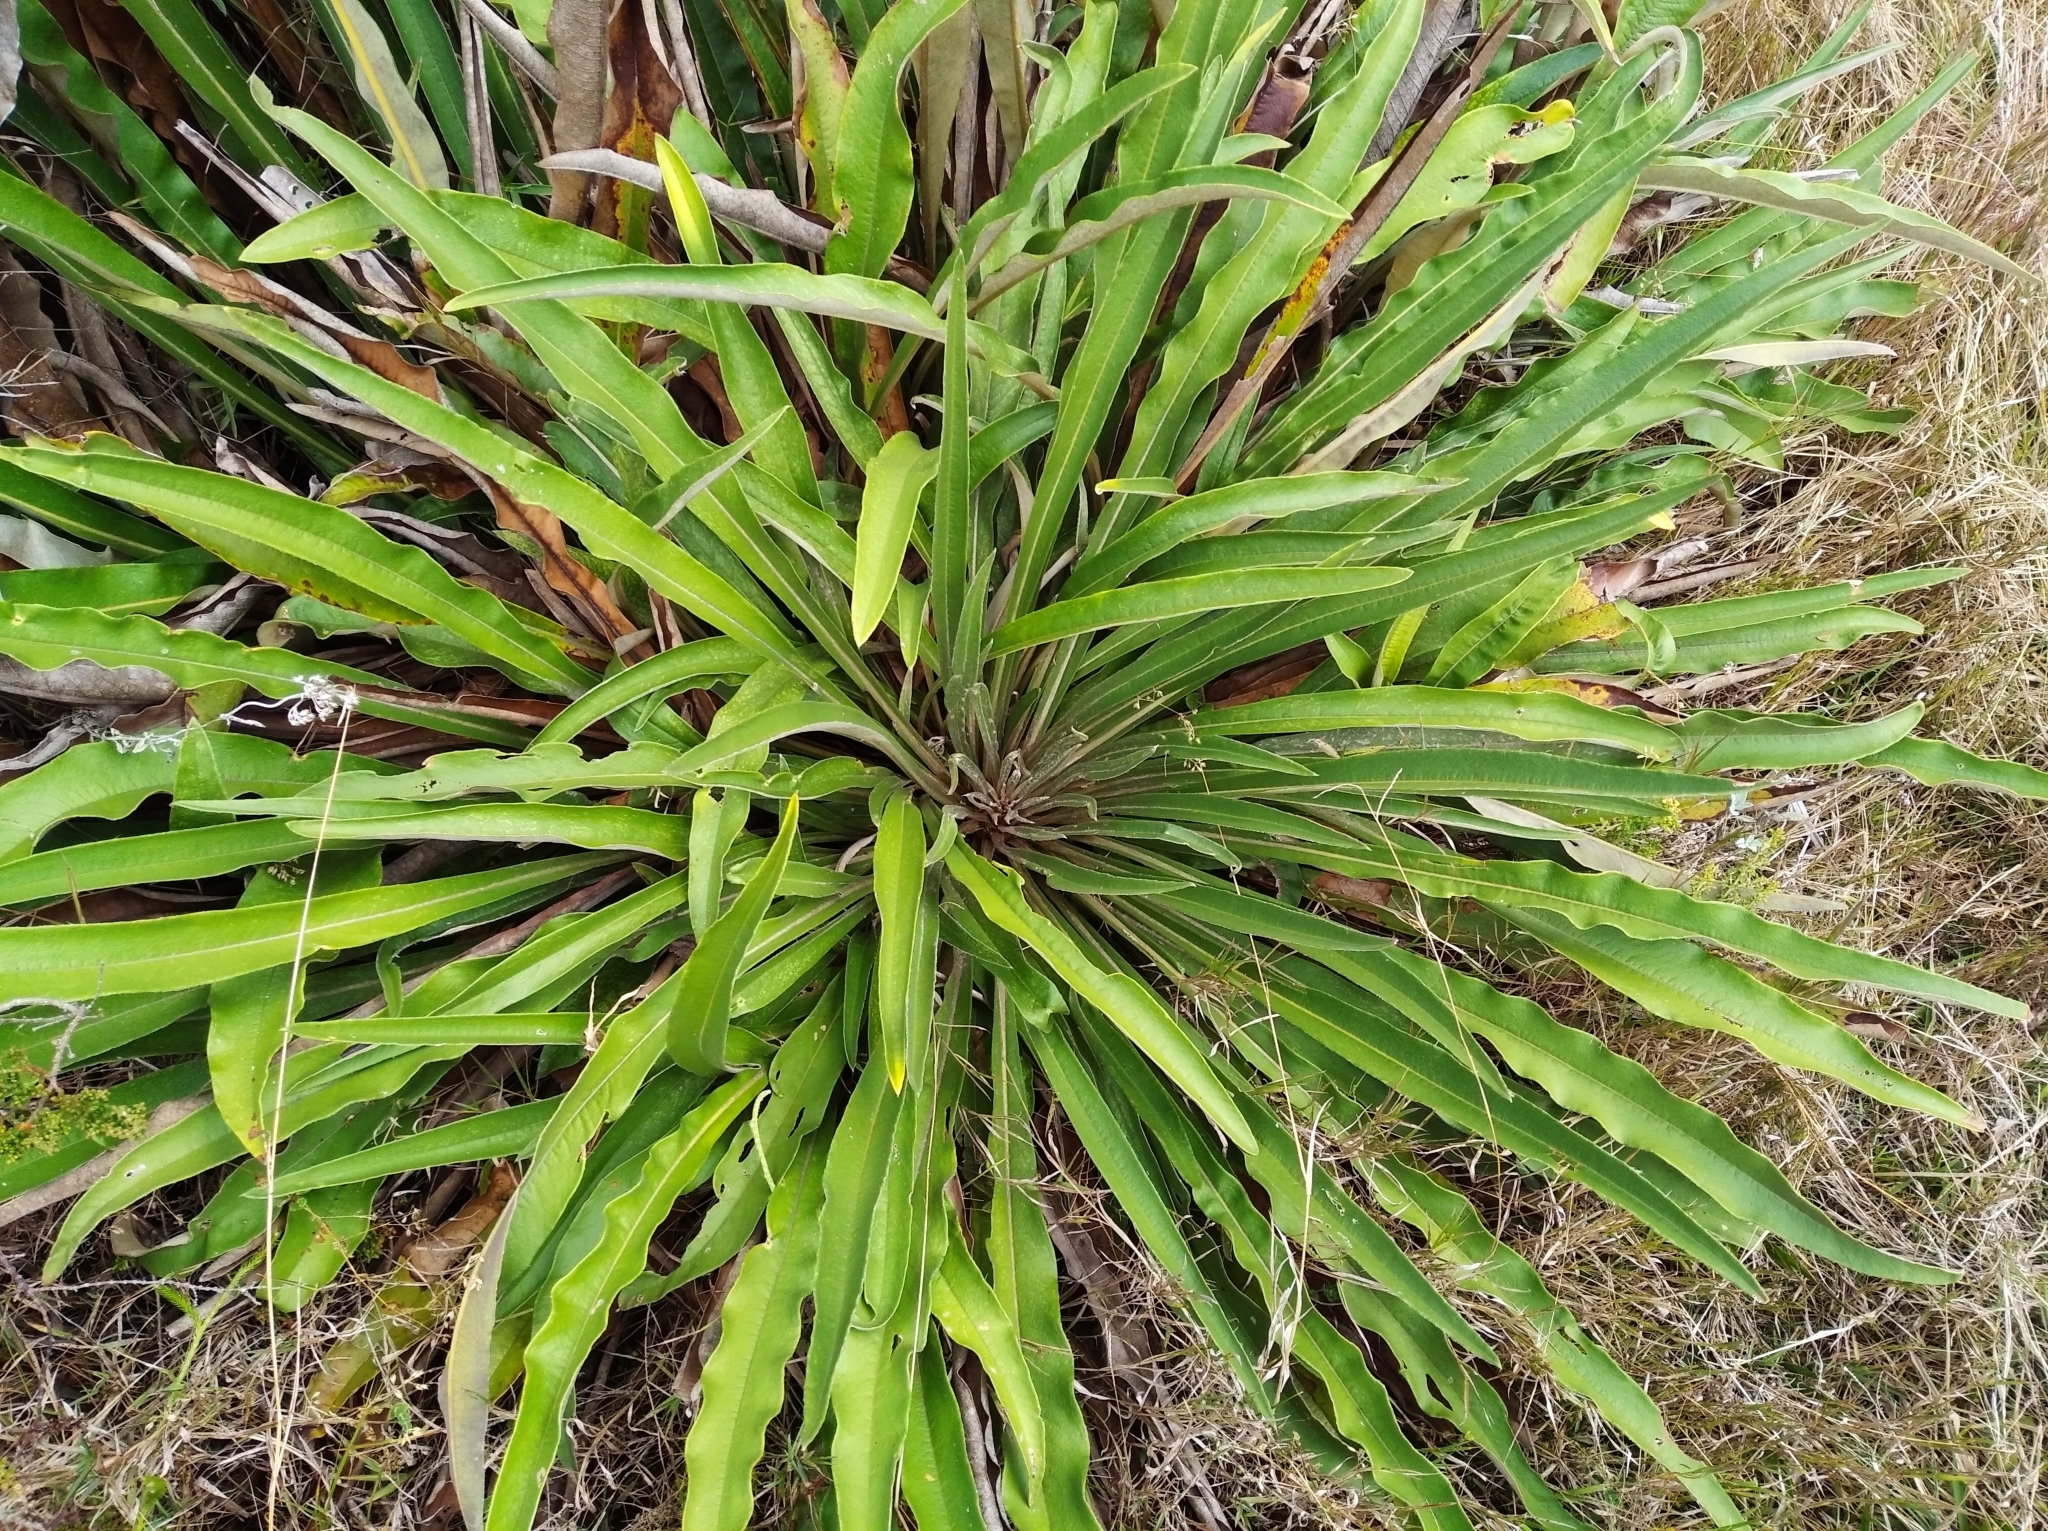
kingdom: Plantae
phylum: Tracheophyta
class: Magnoliopsida
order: Asterales
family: Asteraceae
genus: Espeletia
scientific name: Espeletia bracteosa
